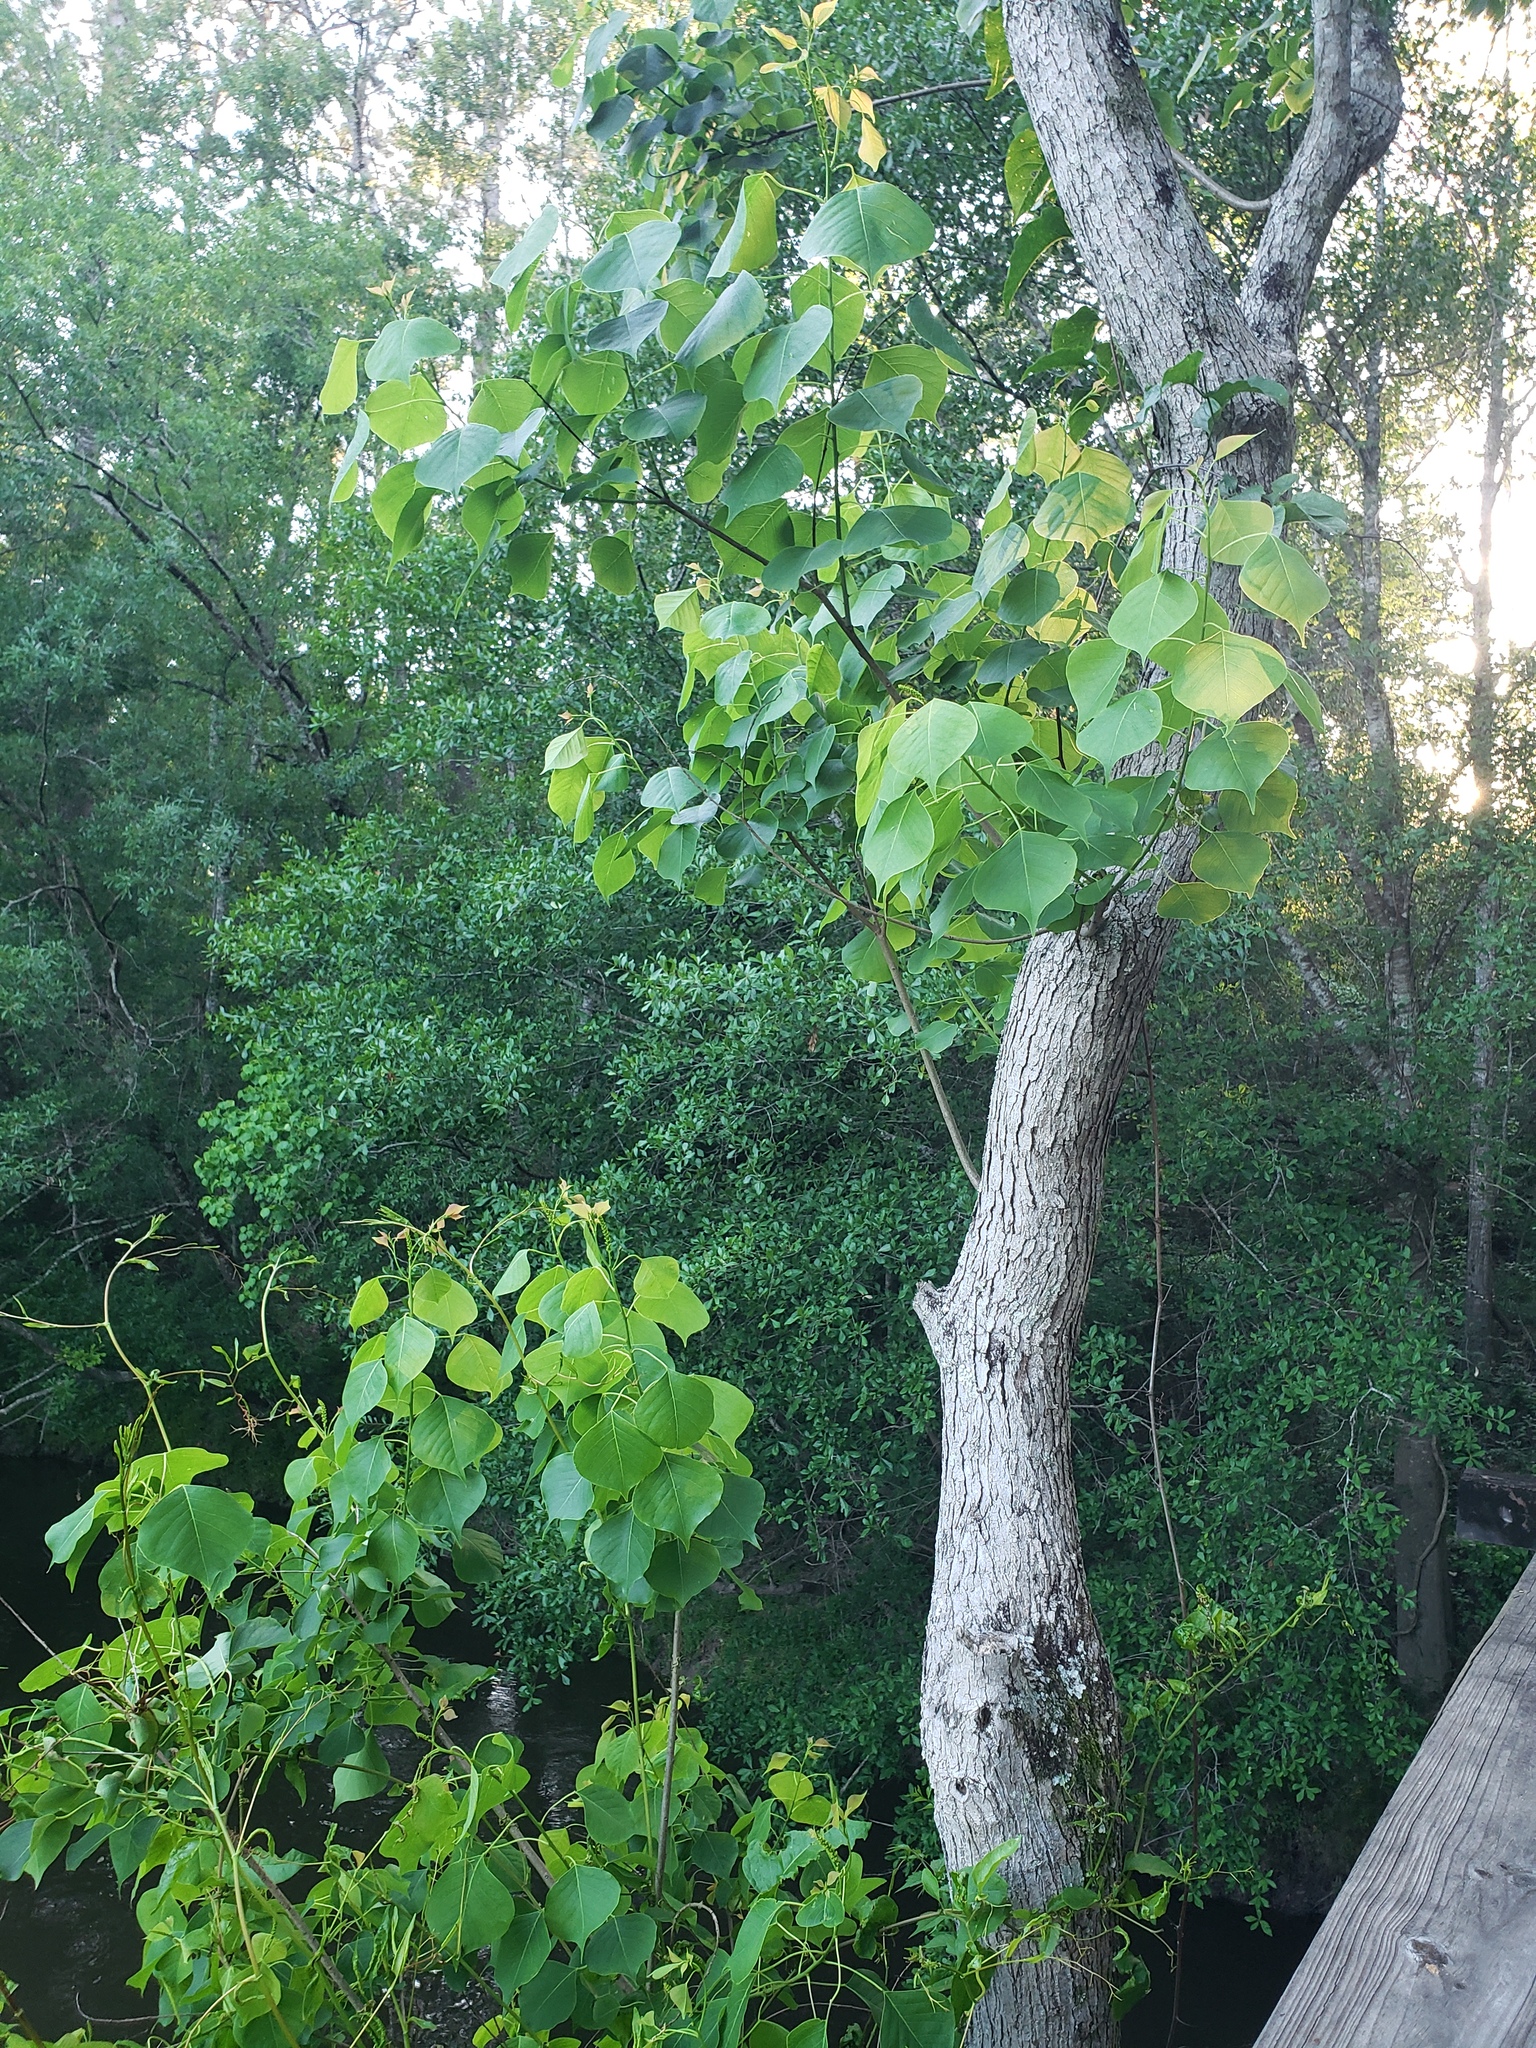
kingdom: Plantae
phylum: Tracheophyta
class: Magnoliopsida
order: Malpighiales
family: Euphorbiaceae
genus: Triadica
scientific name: Triadica sebifera
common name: Chinese tallow
